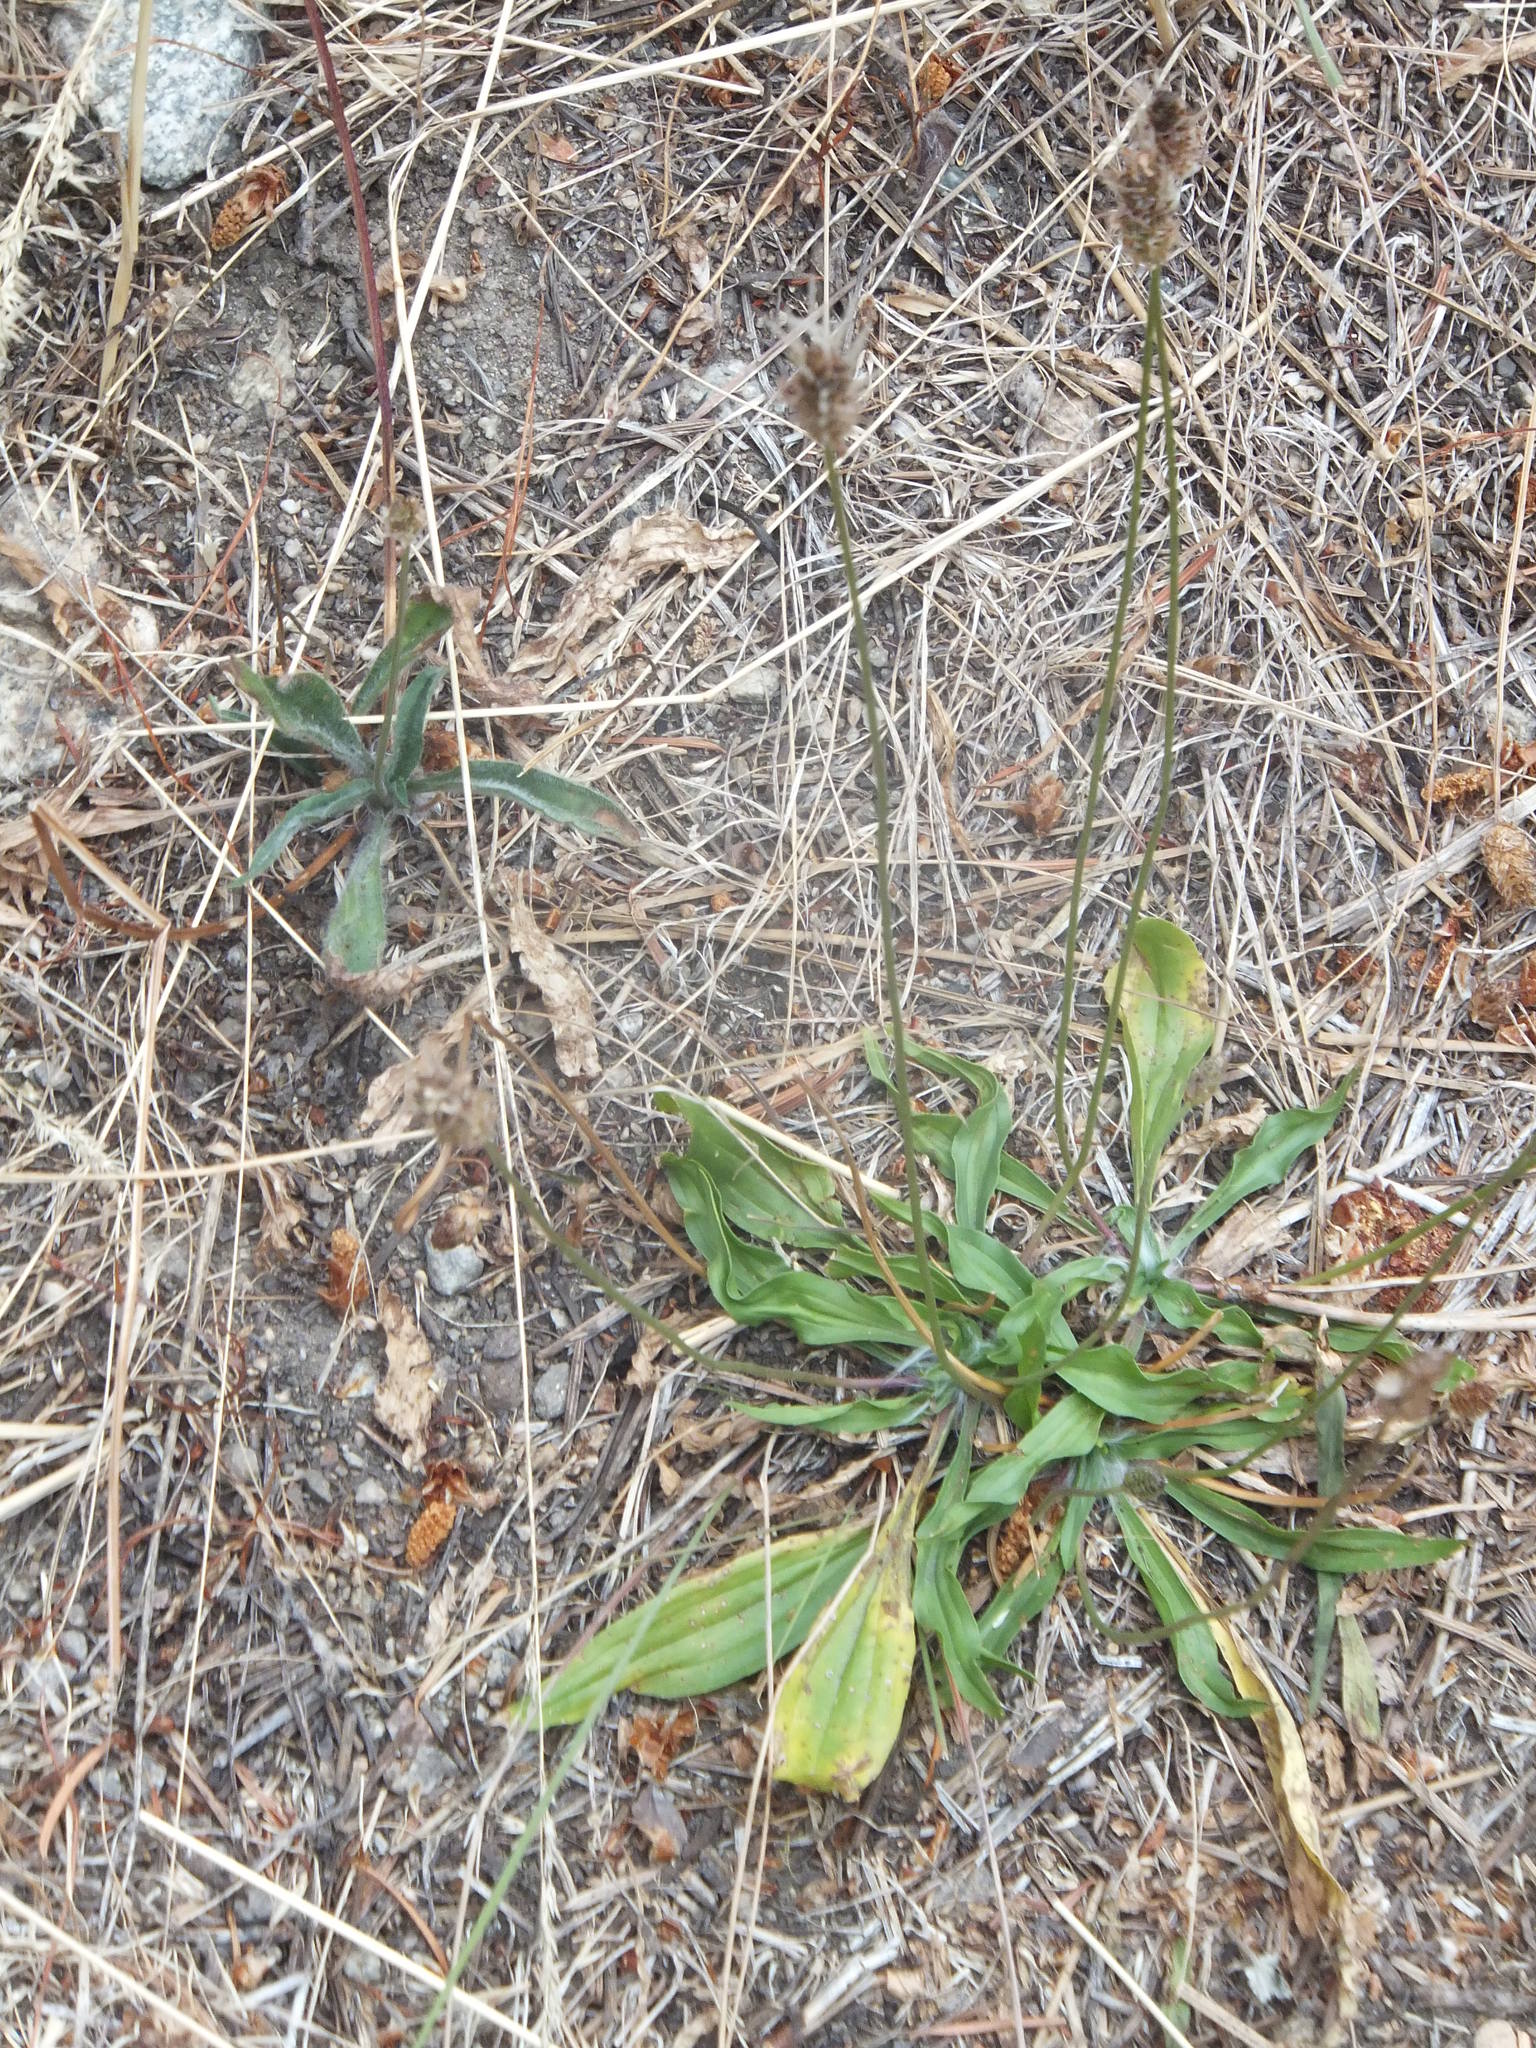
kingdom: Plantae
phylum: Tracheophyta
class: Magnoliopsida
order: Lamiales
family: Plantaginaceae
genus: Plantago
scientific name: Plantago lanceolata
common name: Ribwort plantain
